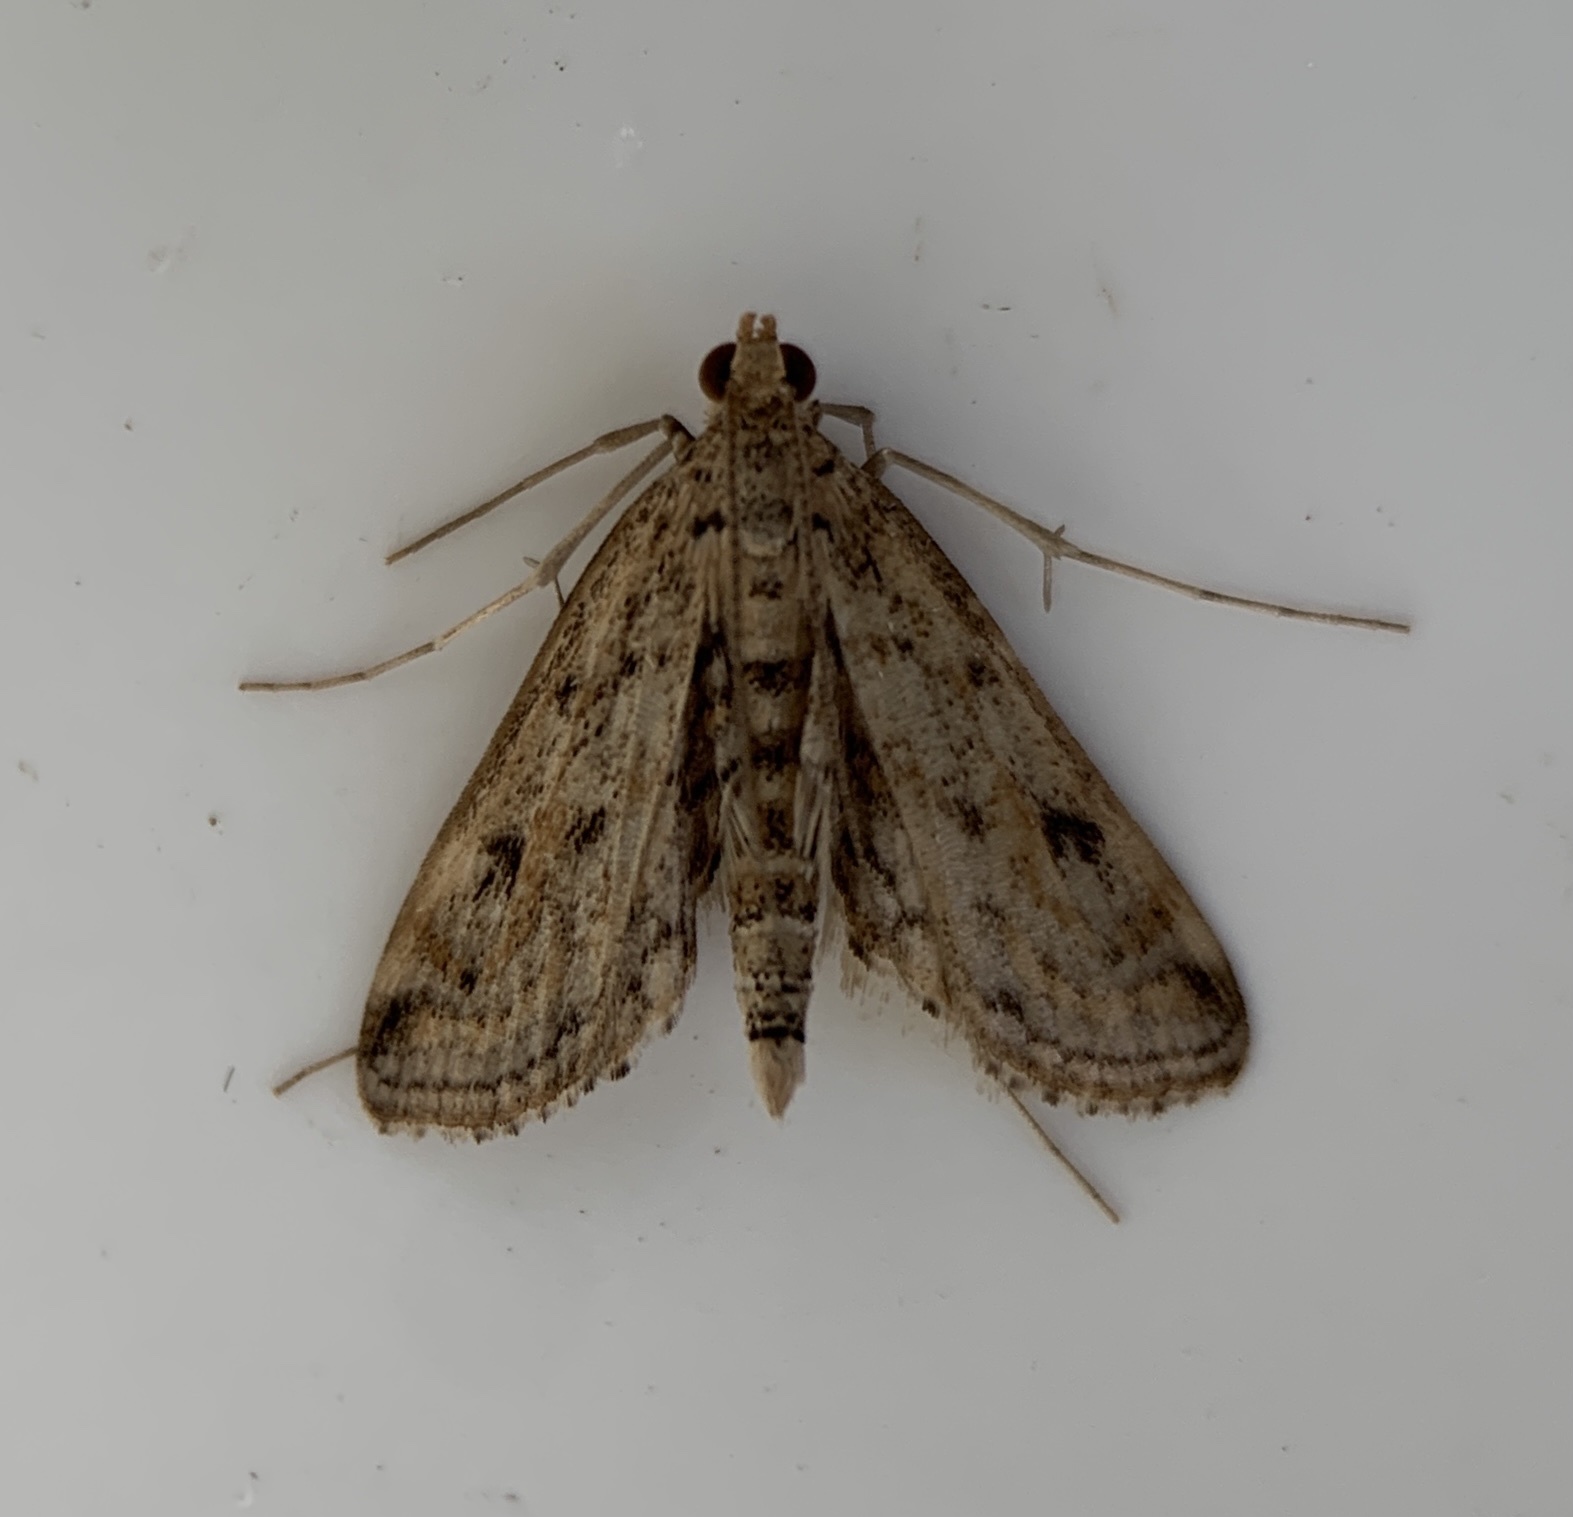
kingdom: Animalia
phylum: Arthropoda
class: Insecta
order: Lepidoptera
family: Crambidae
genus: Parapoynx
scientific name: Parapoynx allionealis
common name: Bladderwort casemaker
